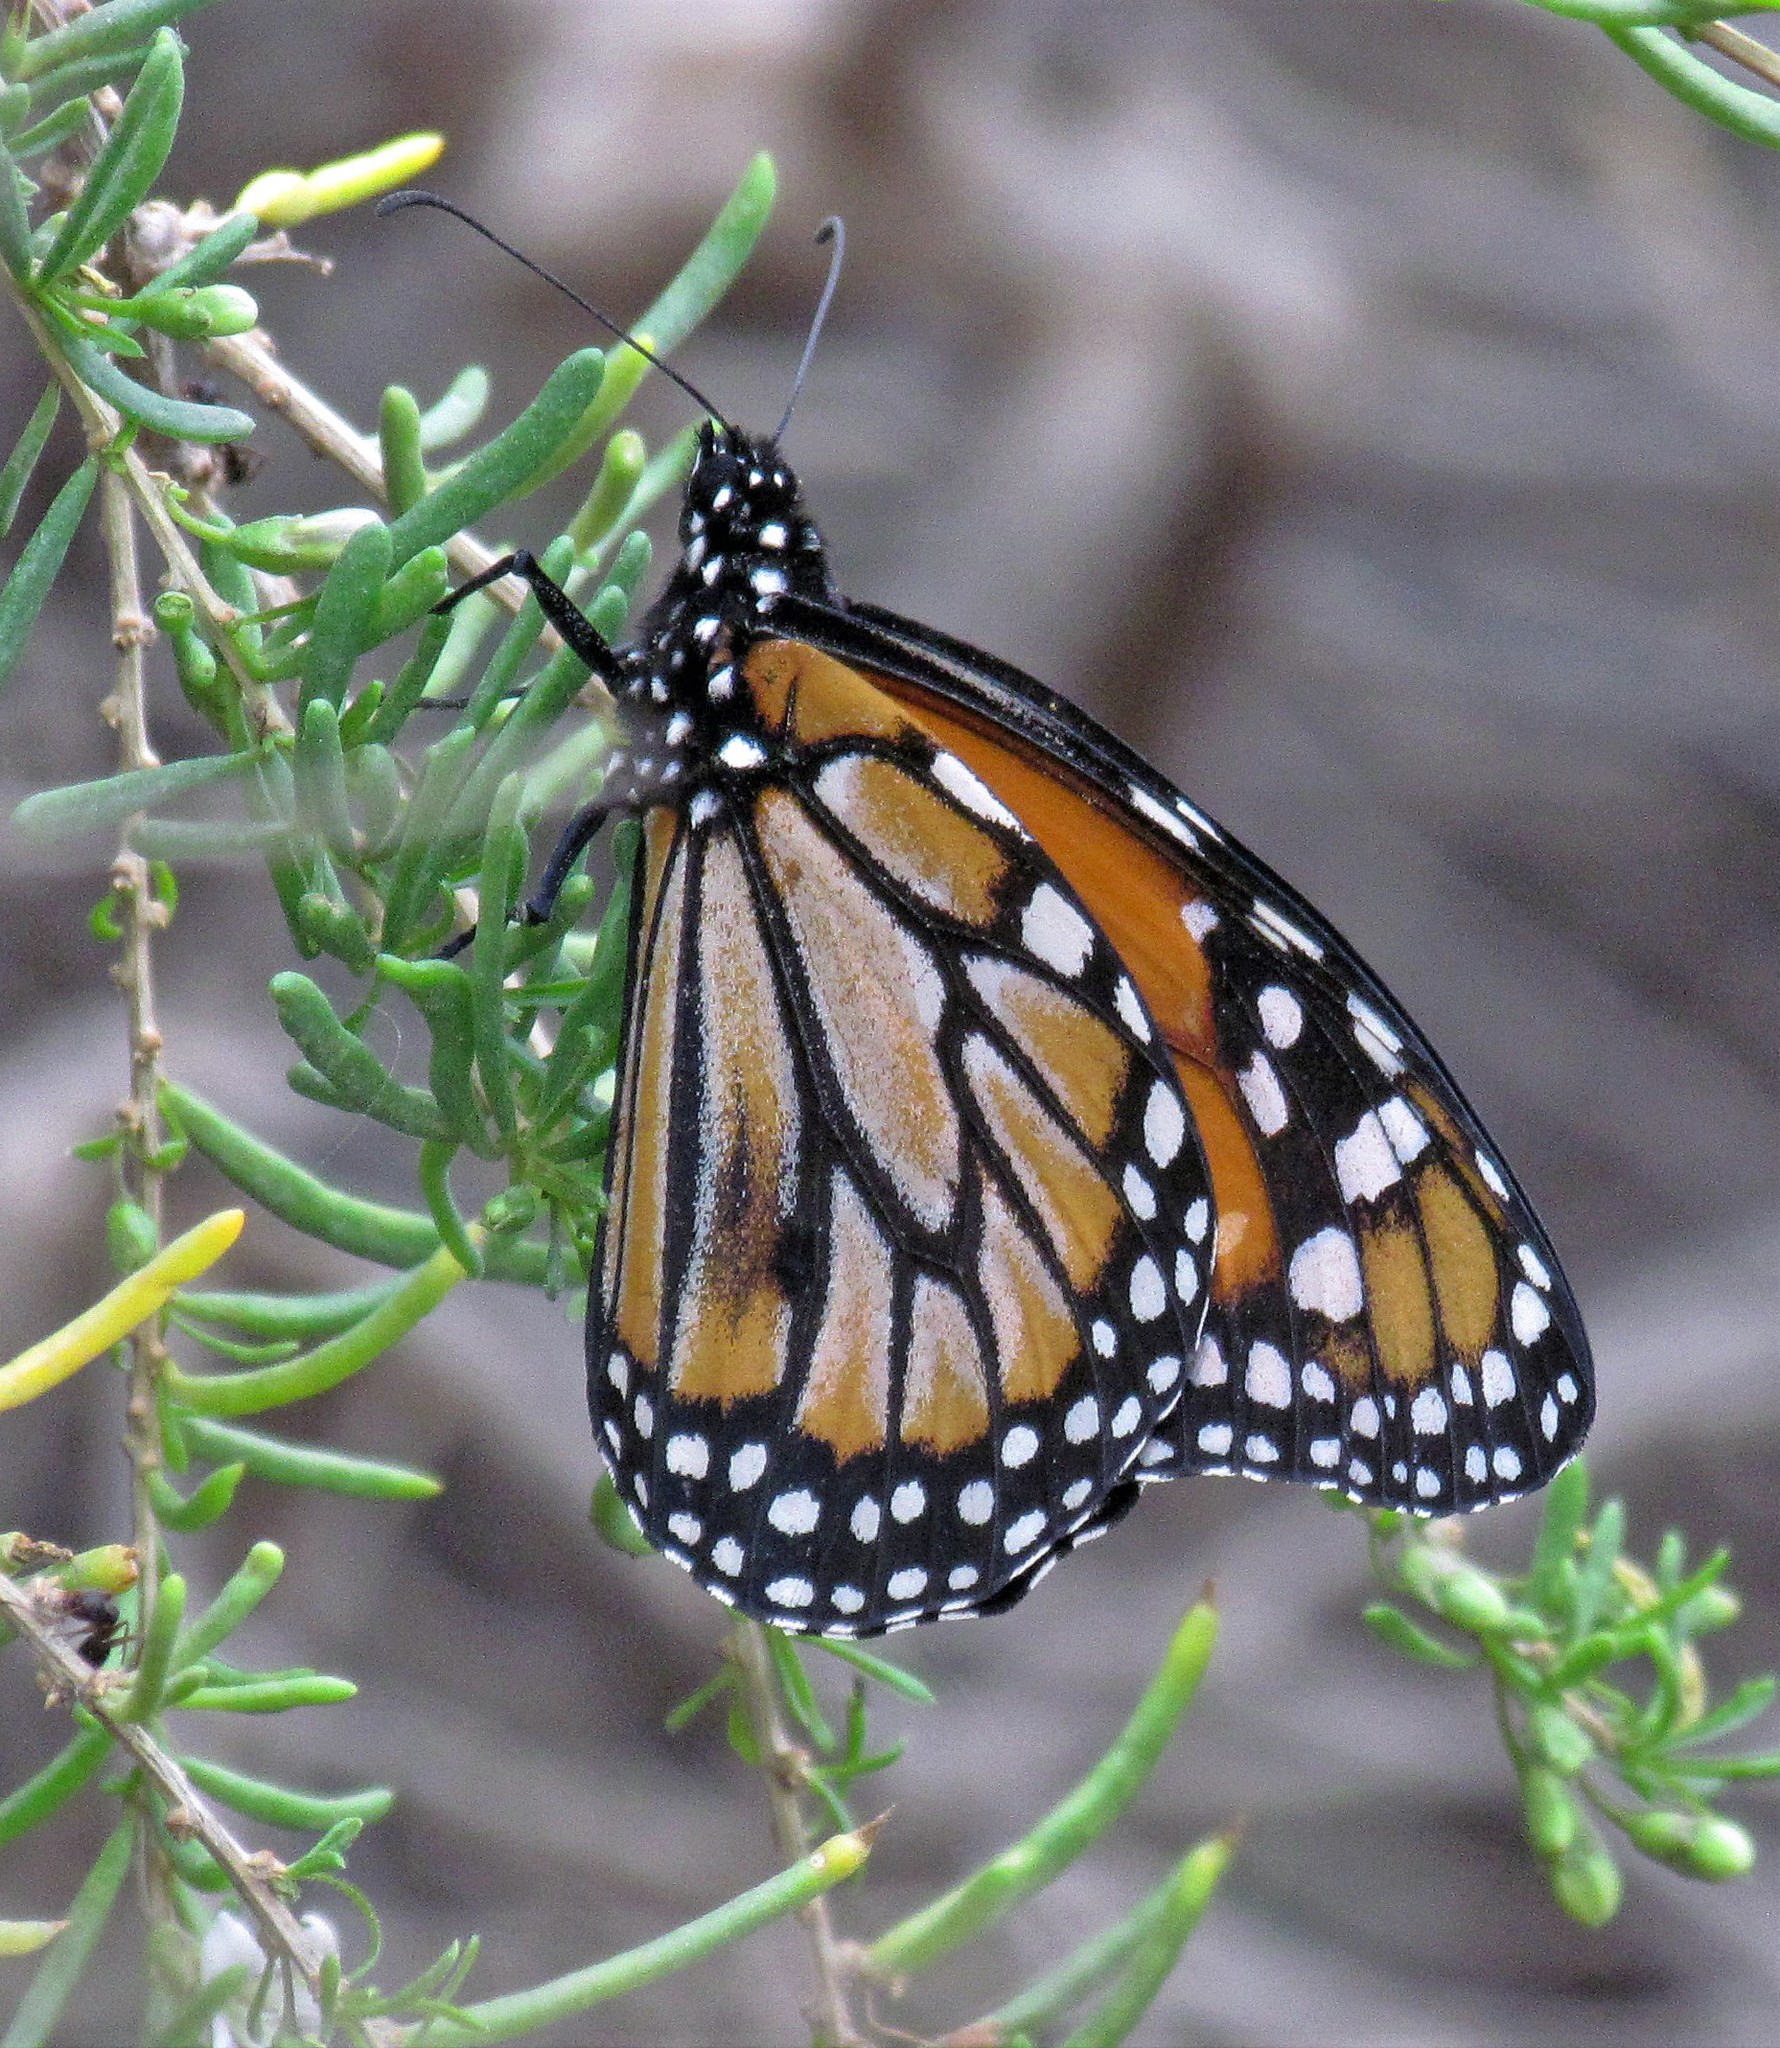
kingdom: Animalia
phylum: Arthropoda
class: Insecta
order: Lepidoptera
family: Nymphalidae
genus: Danaus
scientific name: Danaus erippus
